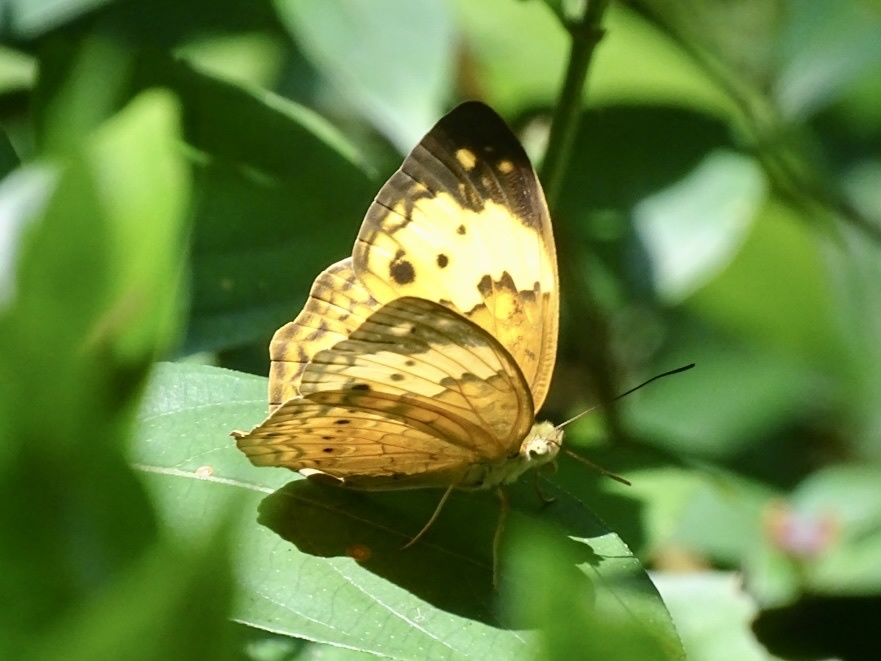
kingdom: Animalia
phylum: Arthropoda
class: Insecta
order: Lepidoptera
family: Nymphalidae
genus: Cupha
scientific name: Cupha erymanthis
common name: Rustic
